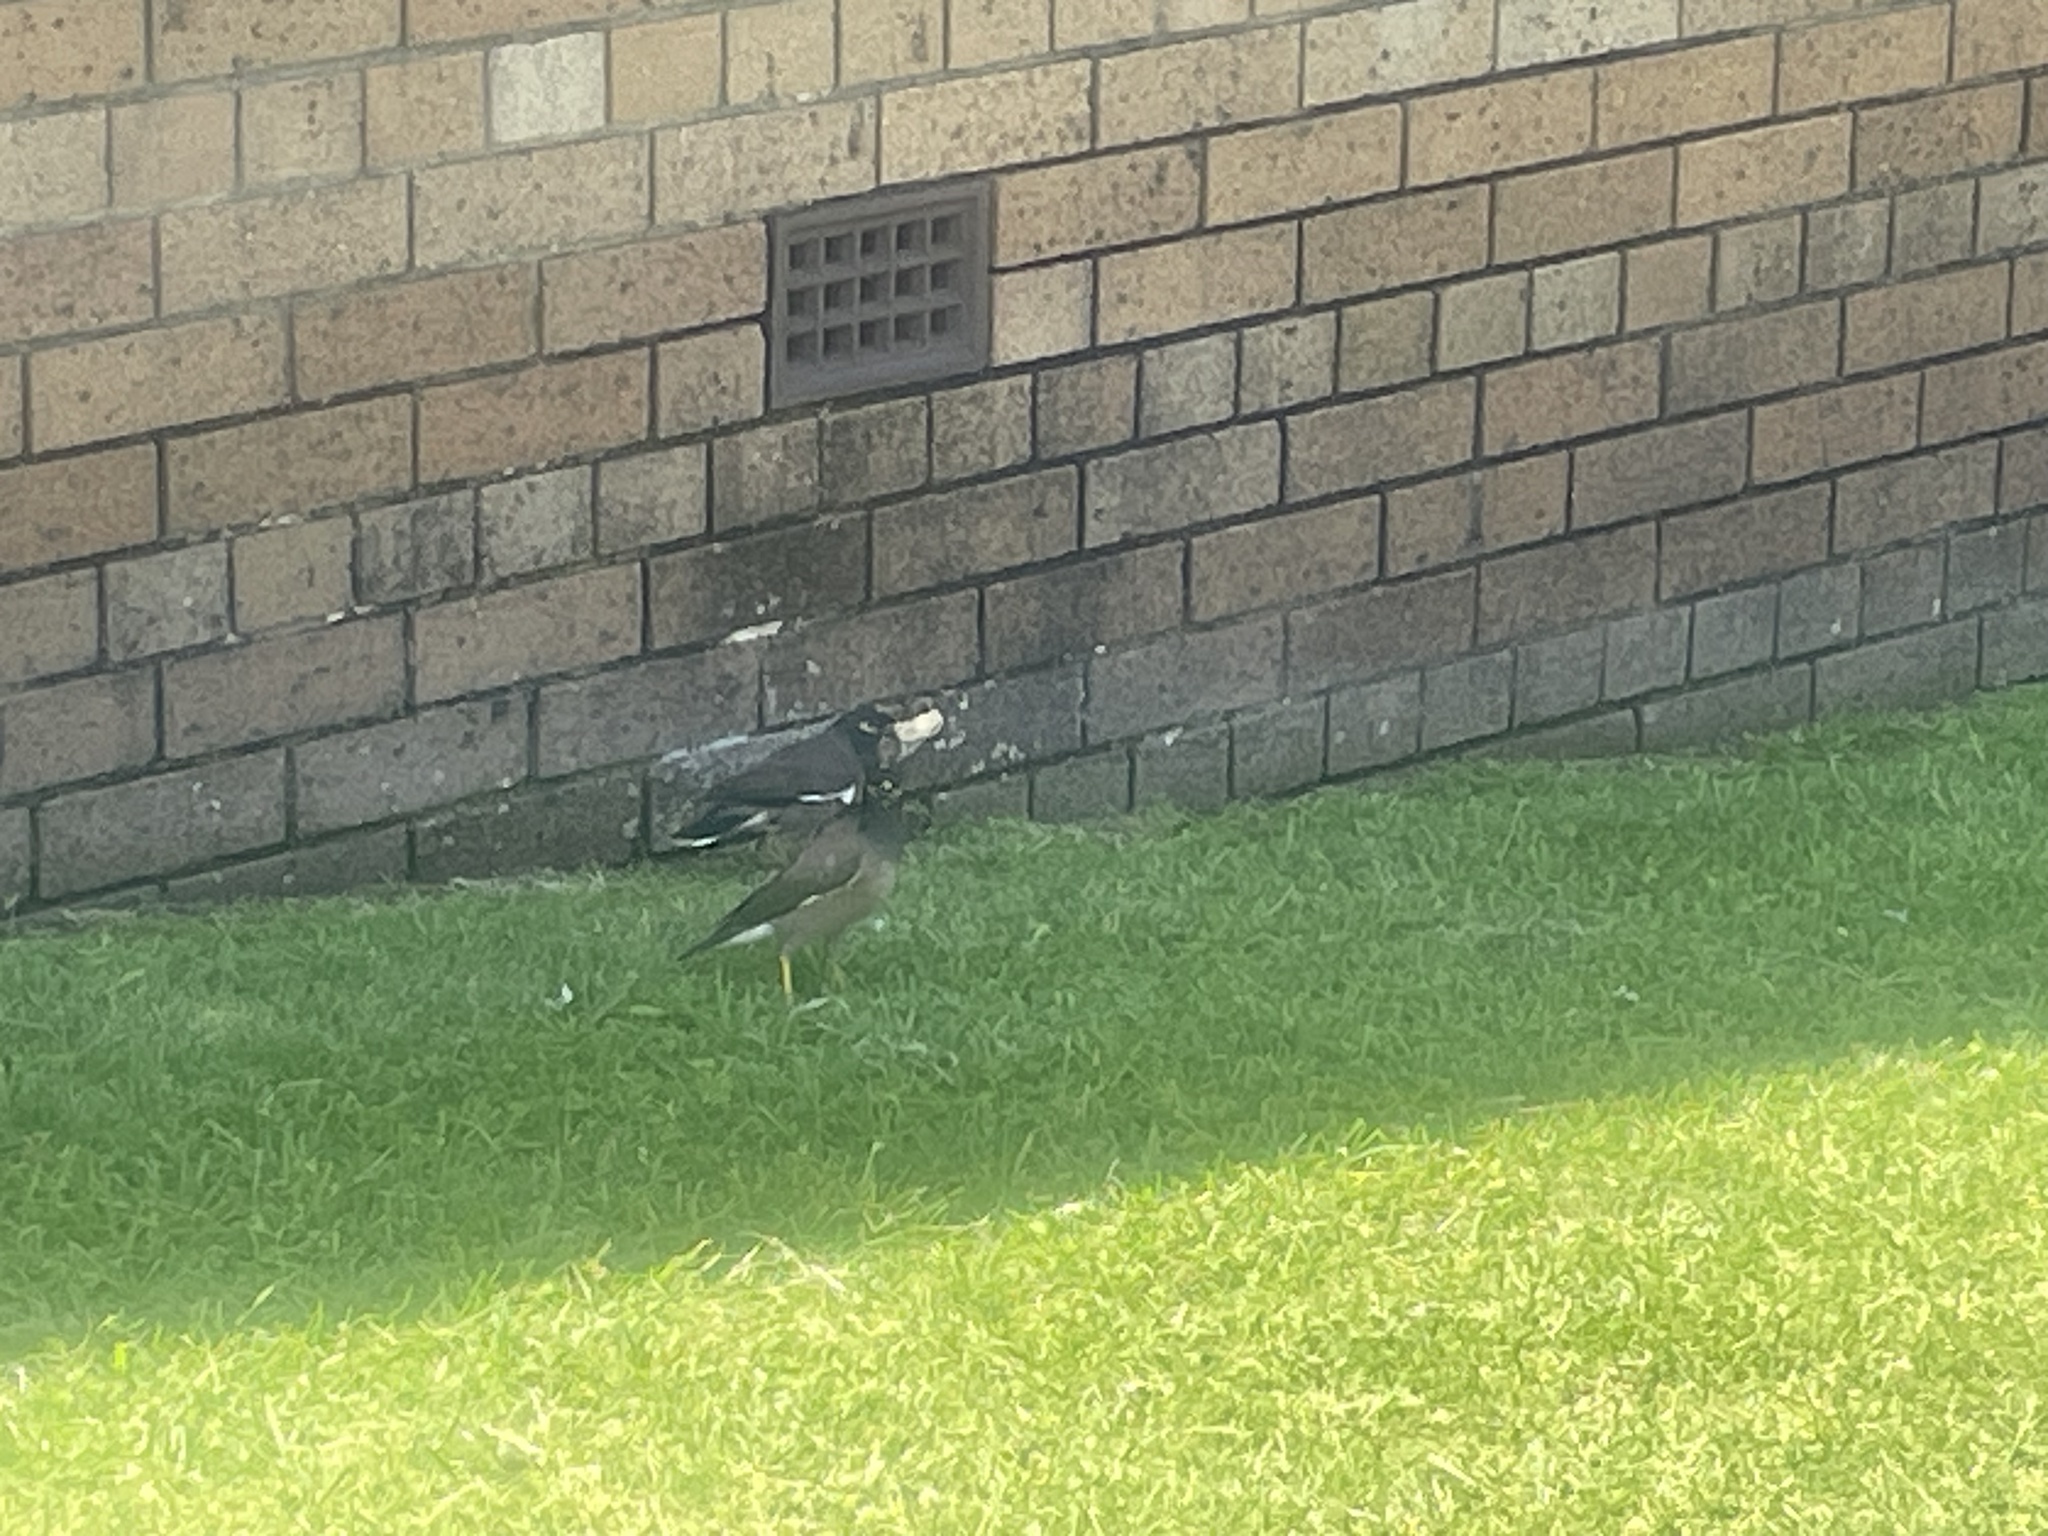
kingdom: Animalia
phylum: Chordata
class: Aves
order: Passeriformes
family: Sturnidae
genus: Acridotheres
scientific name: Acridotheres tristis
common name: Common myna
